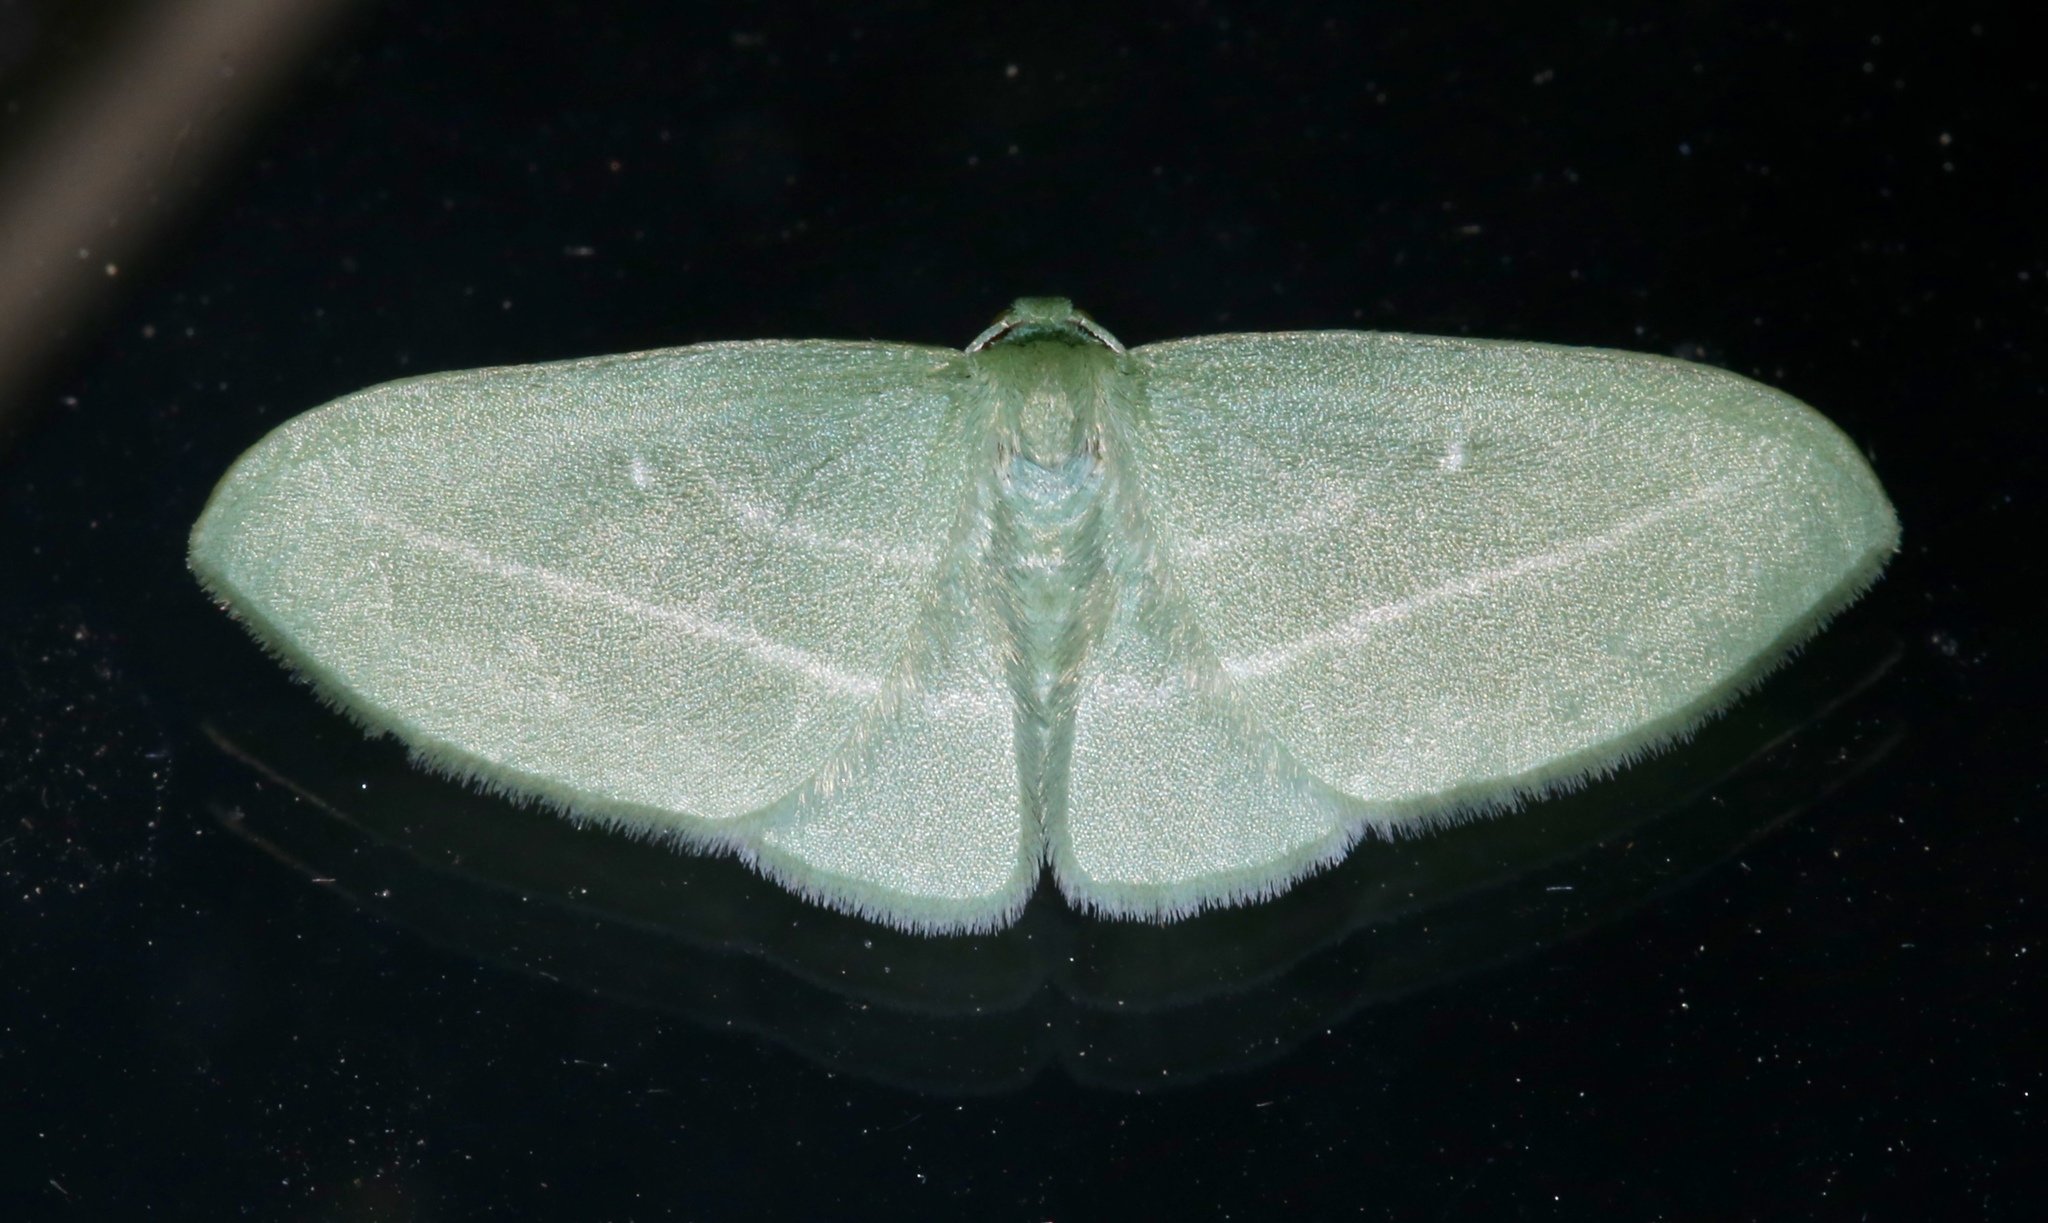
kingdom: Animalia
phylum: Arthropoda
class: Insecta
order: Lepidoptera
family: Geometridae
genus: Dyspteris
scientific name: Dyspteris abortivaria
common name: Bad-wing
